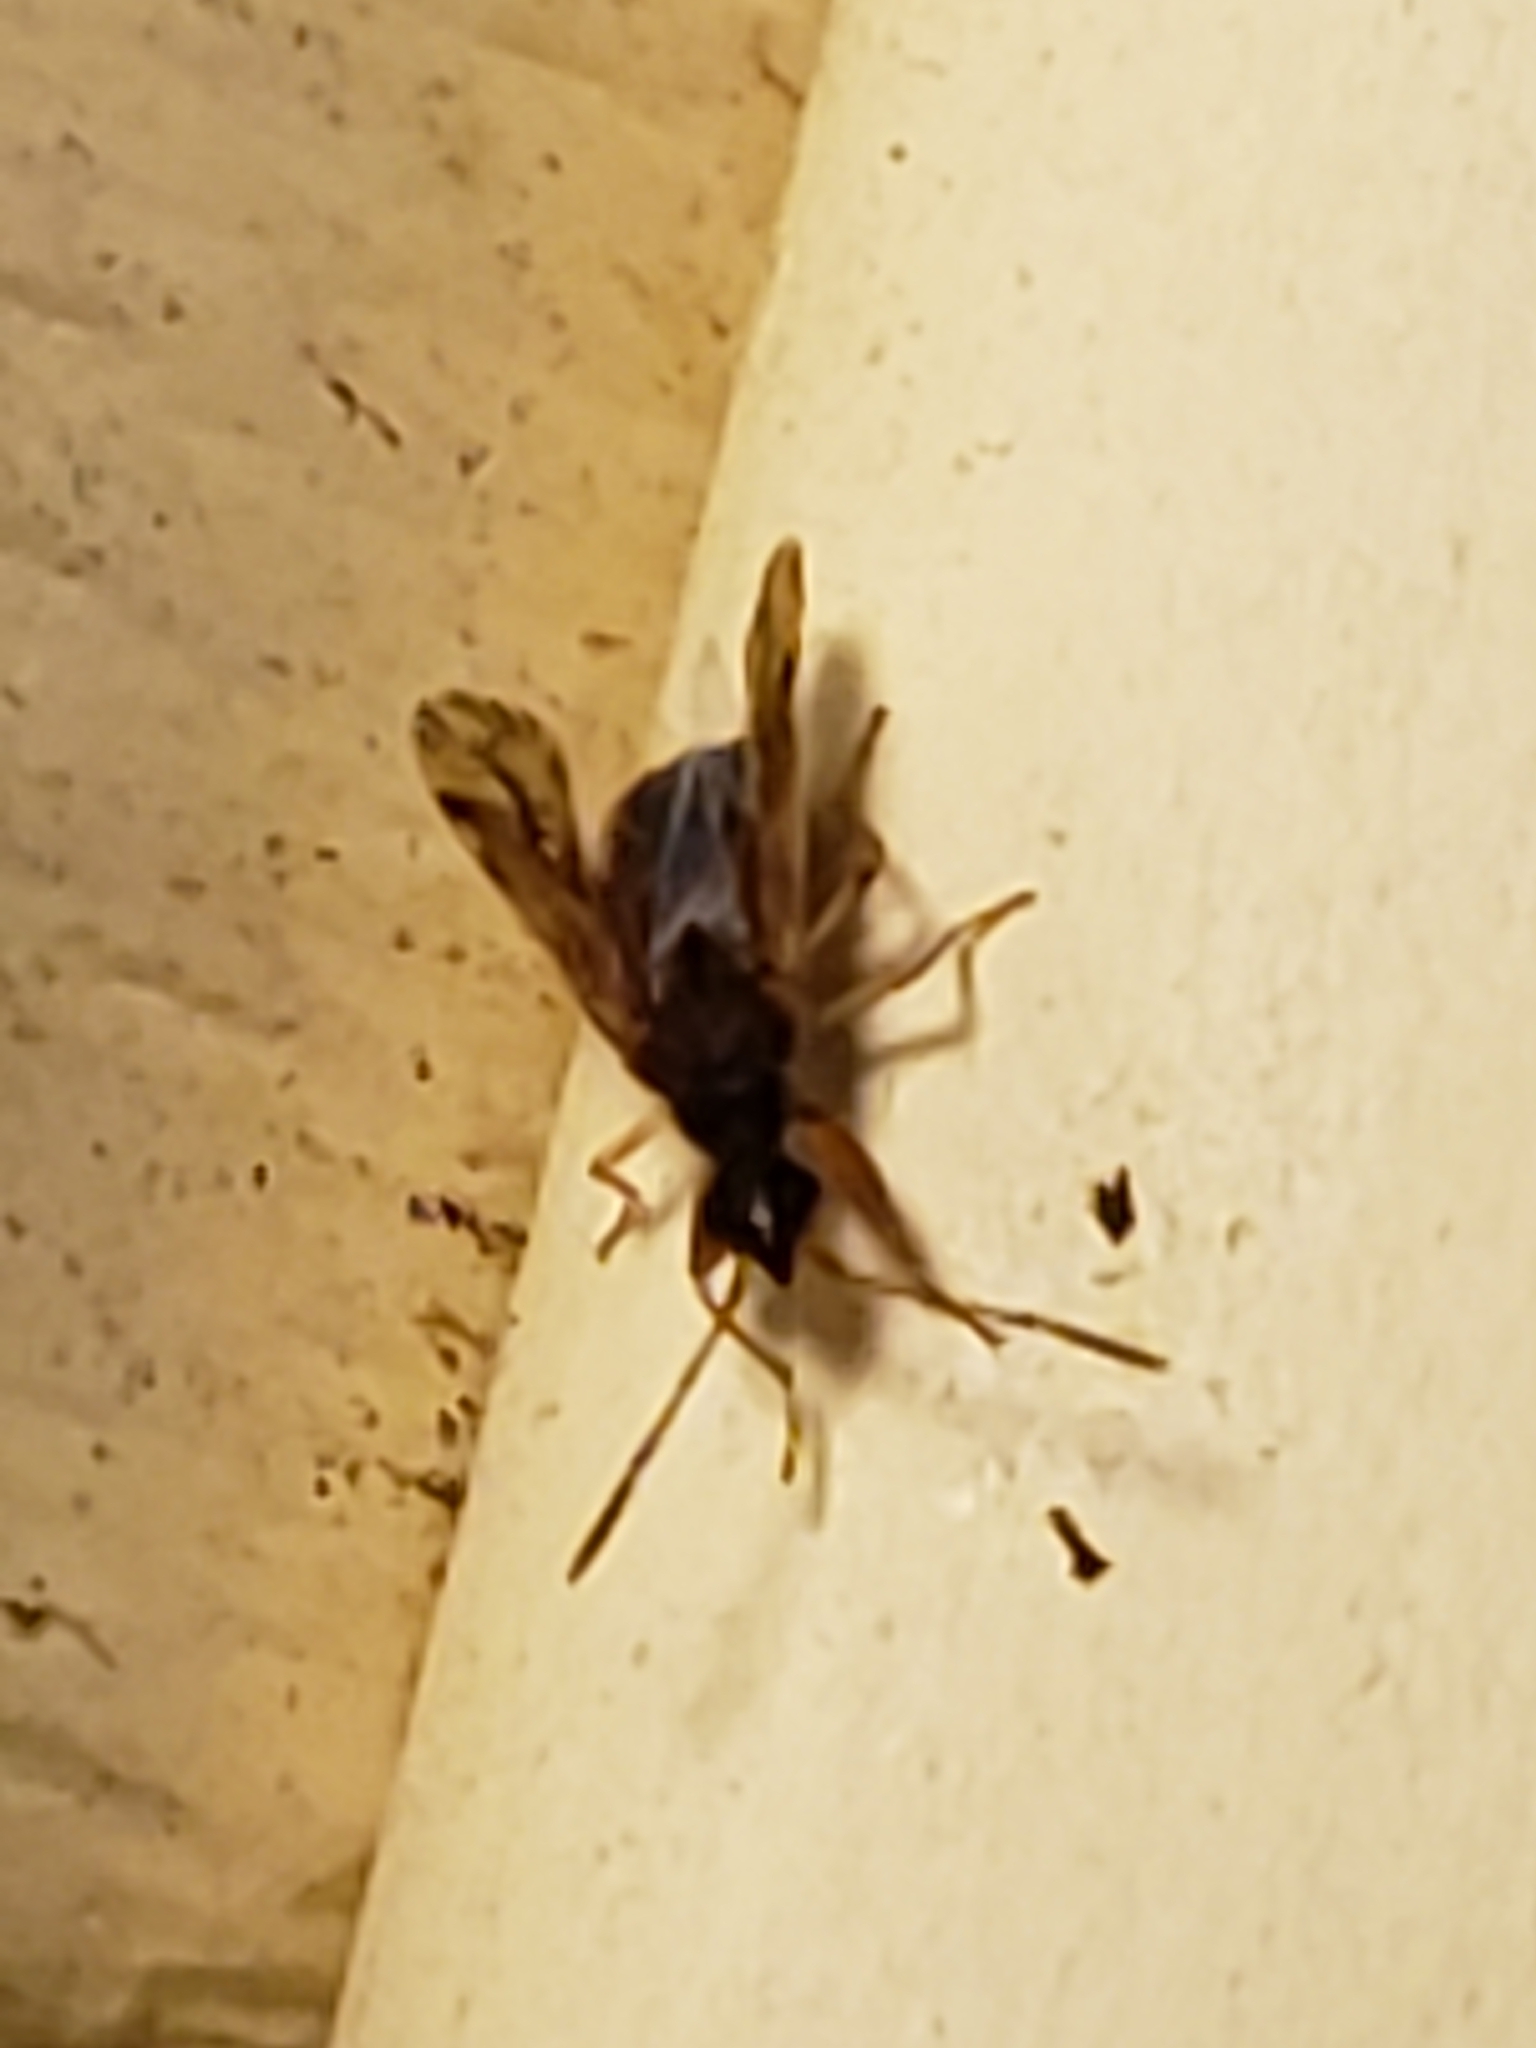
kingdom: Animalia
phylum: Arthropoda
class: Insecta
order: Hemiptera
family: Rhyparochromidae
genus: Heraeus
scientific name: Heraeus plebejus
